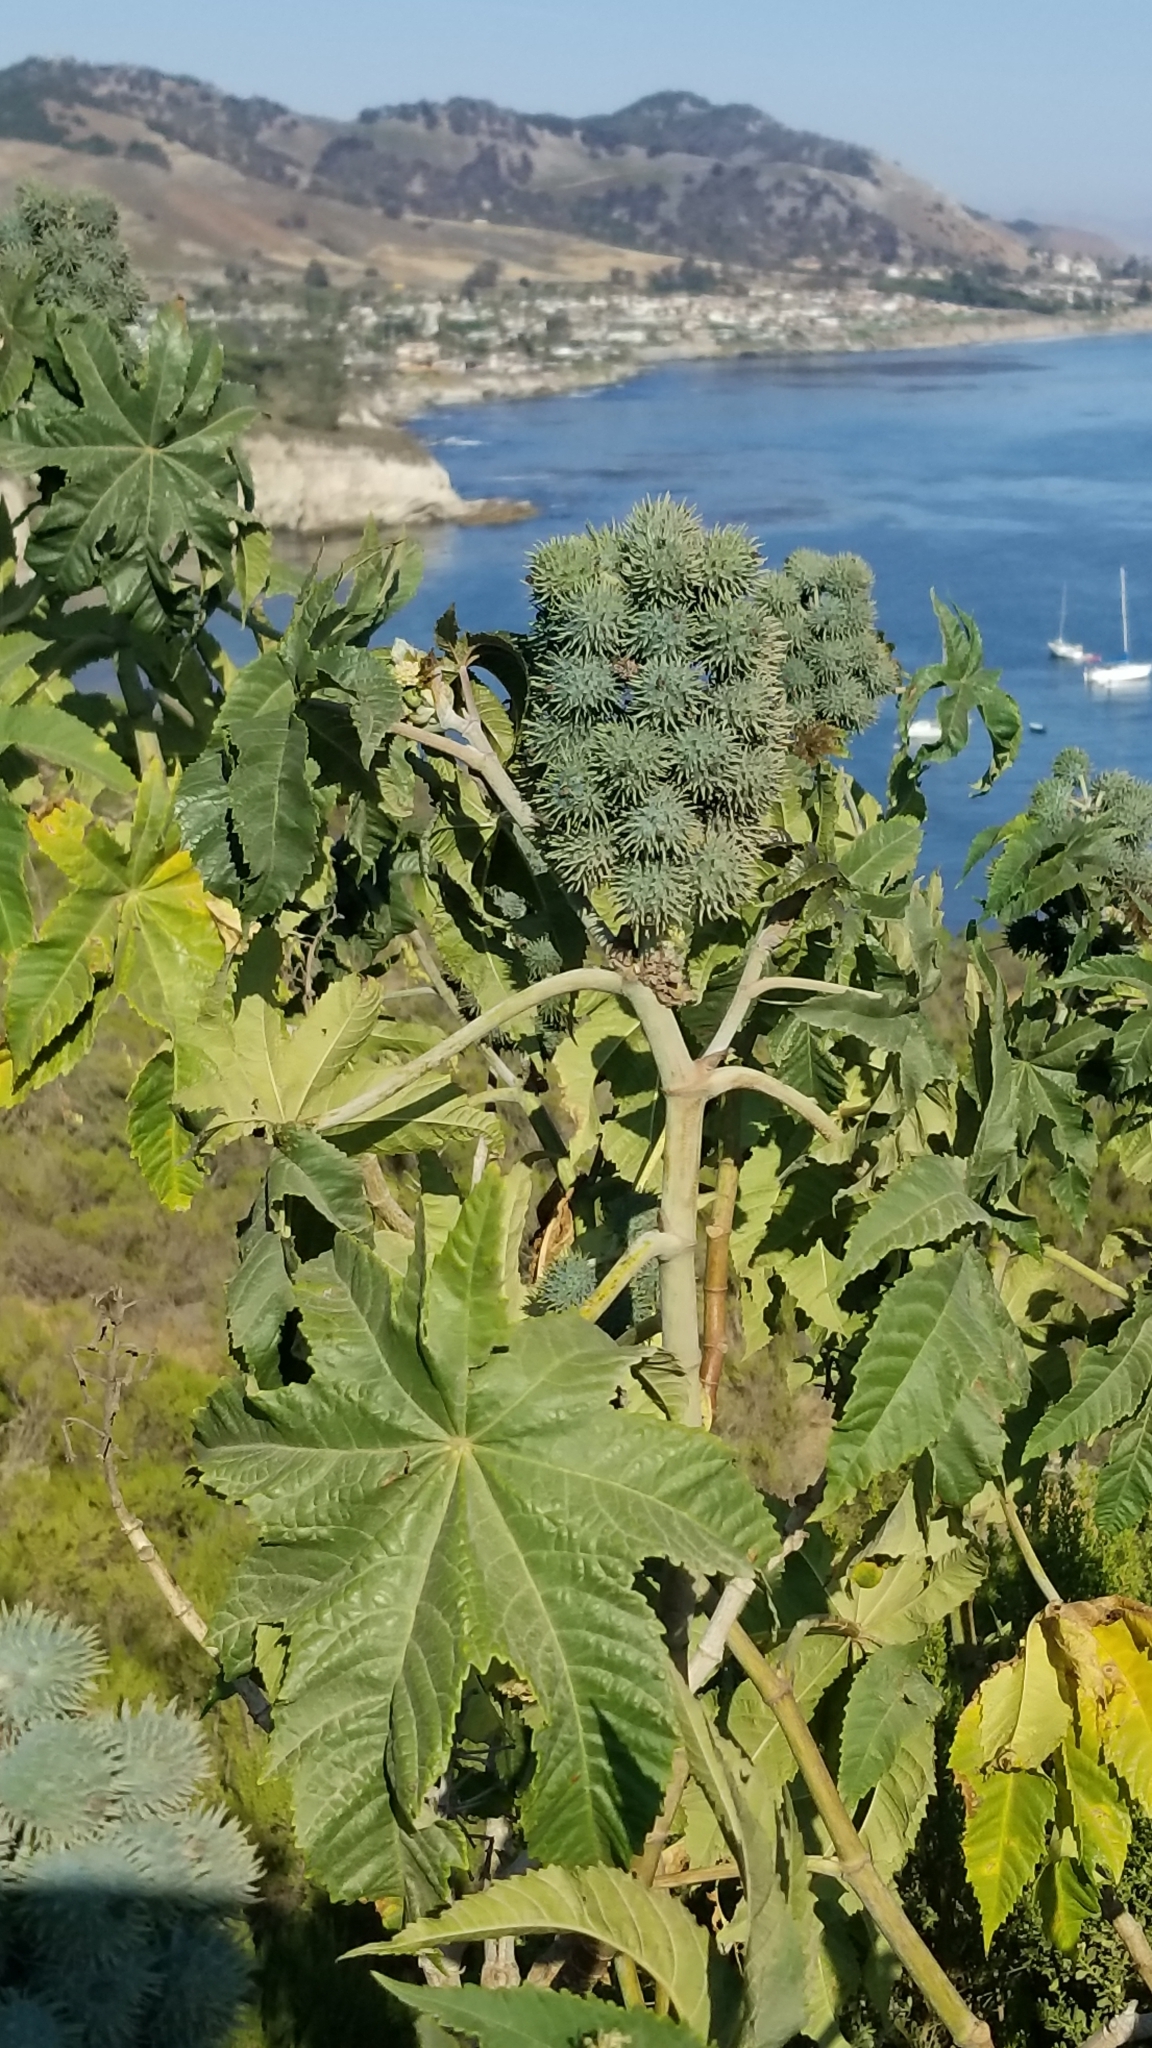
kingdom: Plantae
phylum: Tracheophyta
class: Magnoliopsida
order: Malpighiales
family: Euphorbiaceae
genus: Ricinus
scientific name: Ricinus communis
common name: Castor-oil-plant
